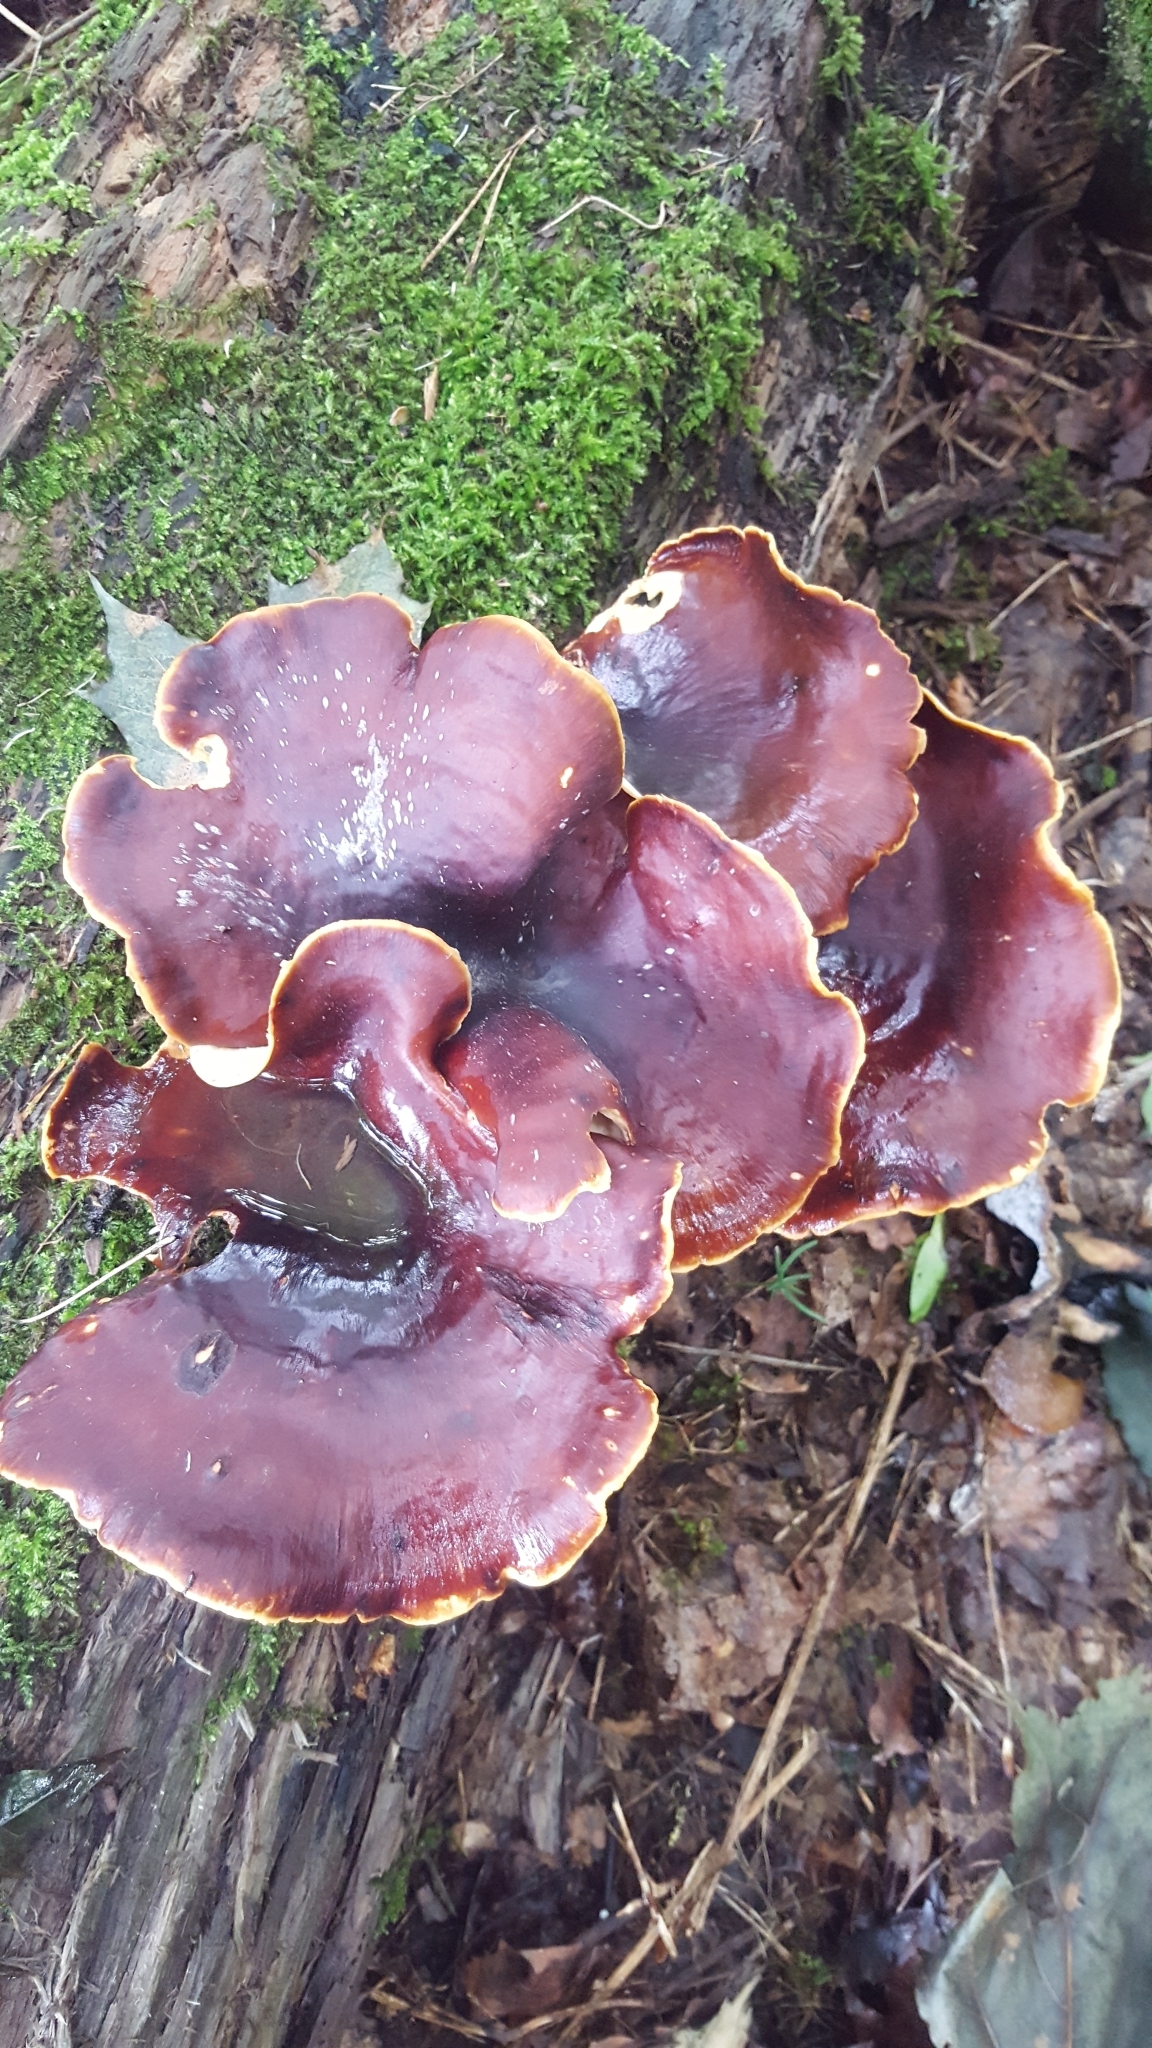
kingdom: Fungi
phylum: Basidiomycota
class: Agaricomycetes
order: Polyporales
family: Polyporaceae
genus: Picipes
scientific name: Picipes badius
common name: Bay polypore
